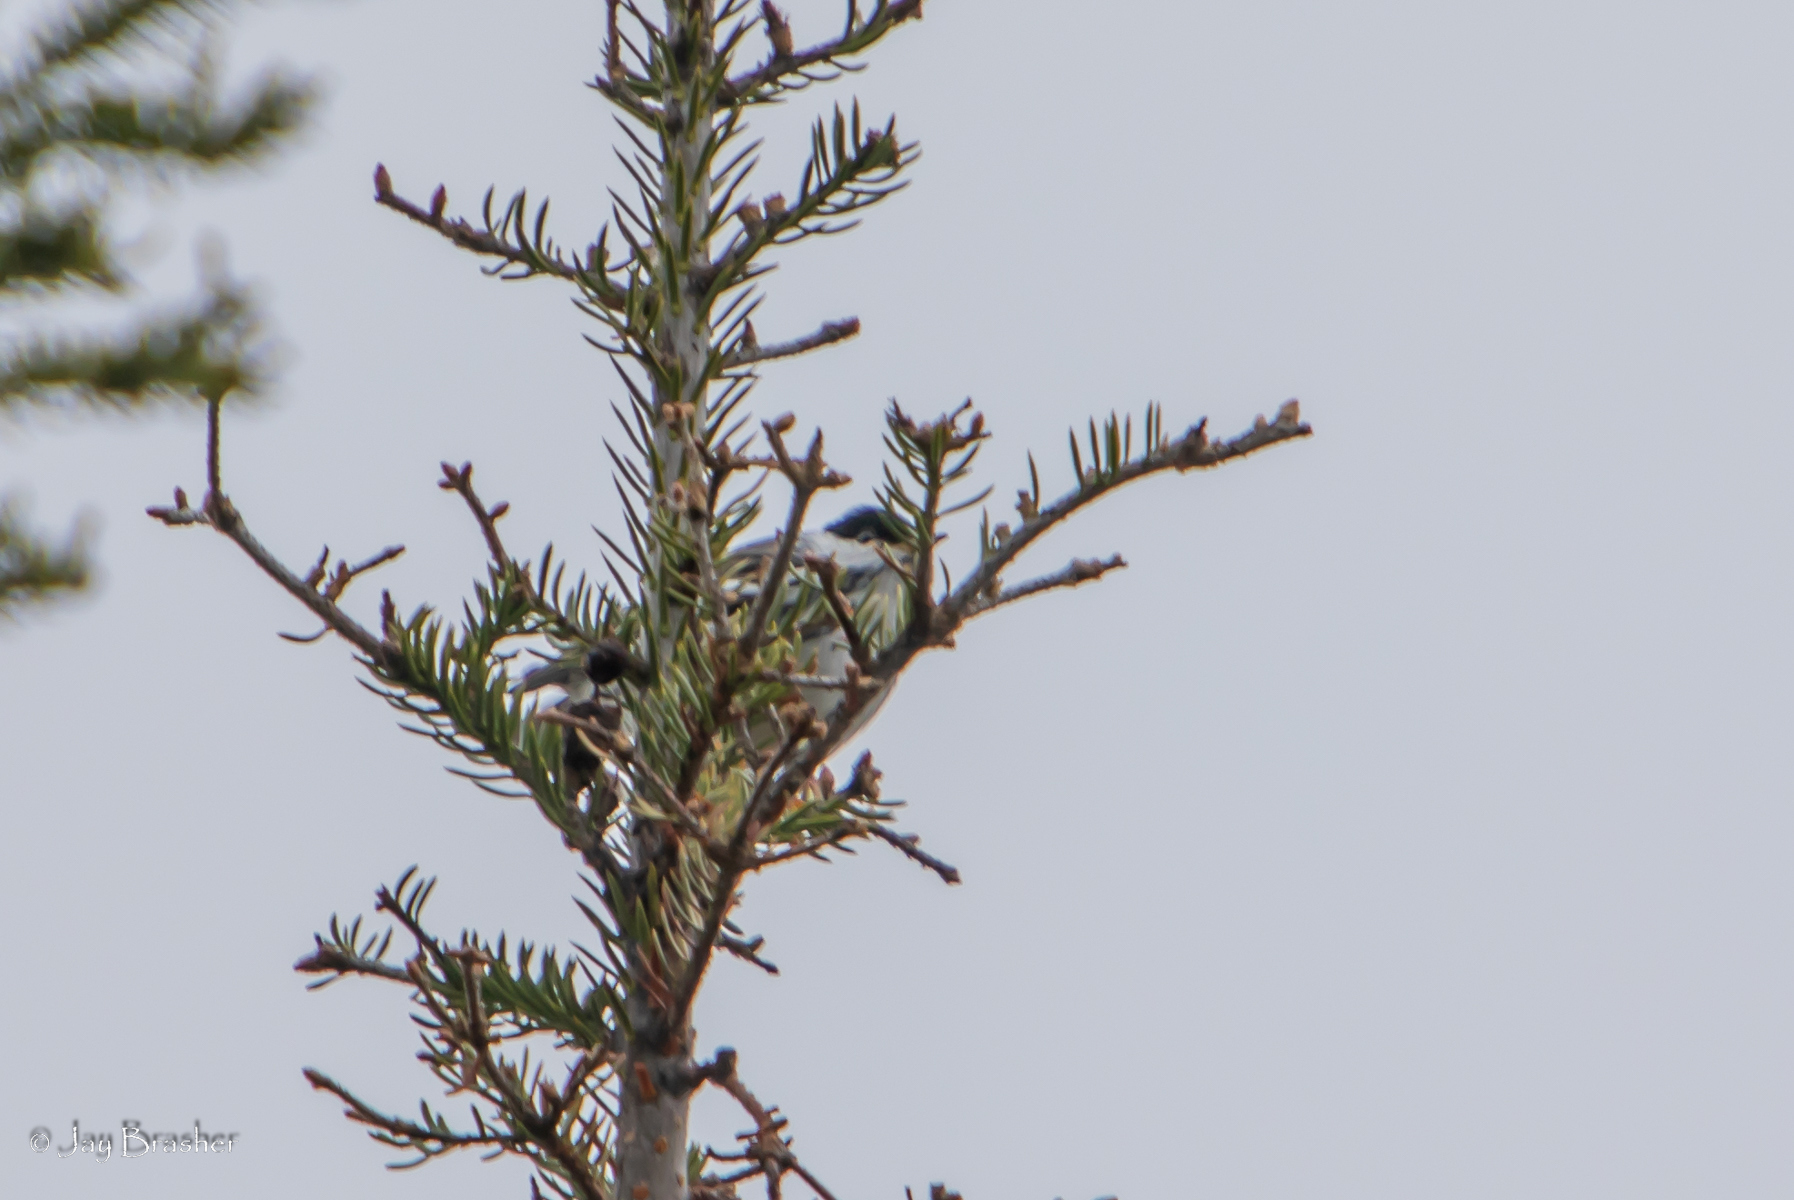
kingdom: Animalia
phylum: Chordata
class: Aves
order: Passeriformes
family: Parulidae
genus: Setophaga
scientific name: Setophaga striata
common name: Blackpoll warbler
